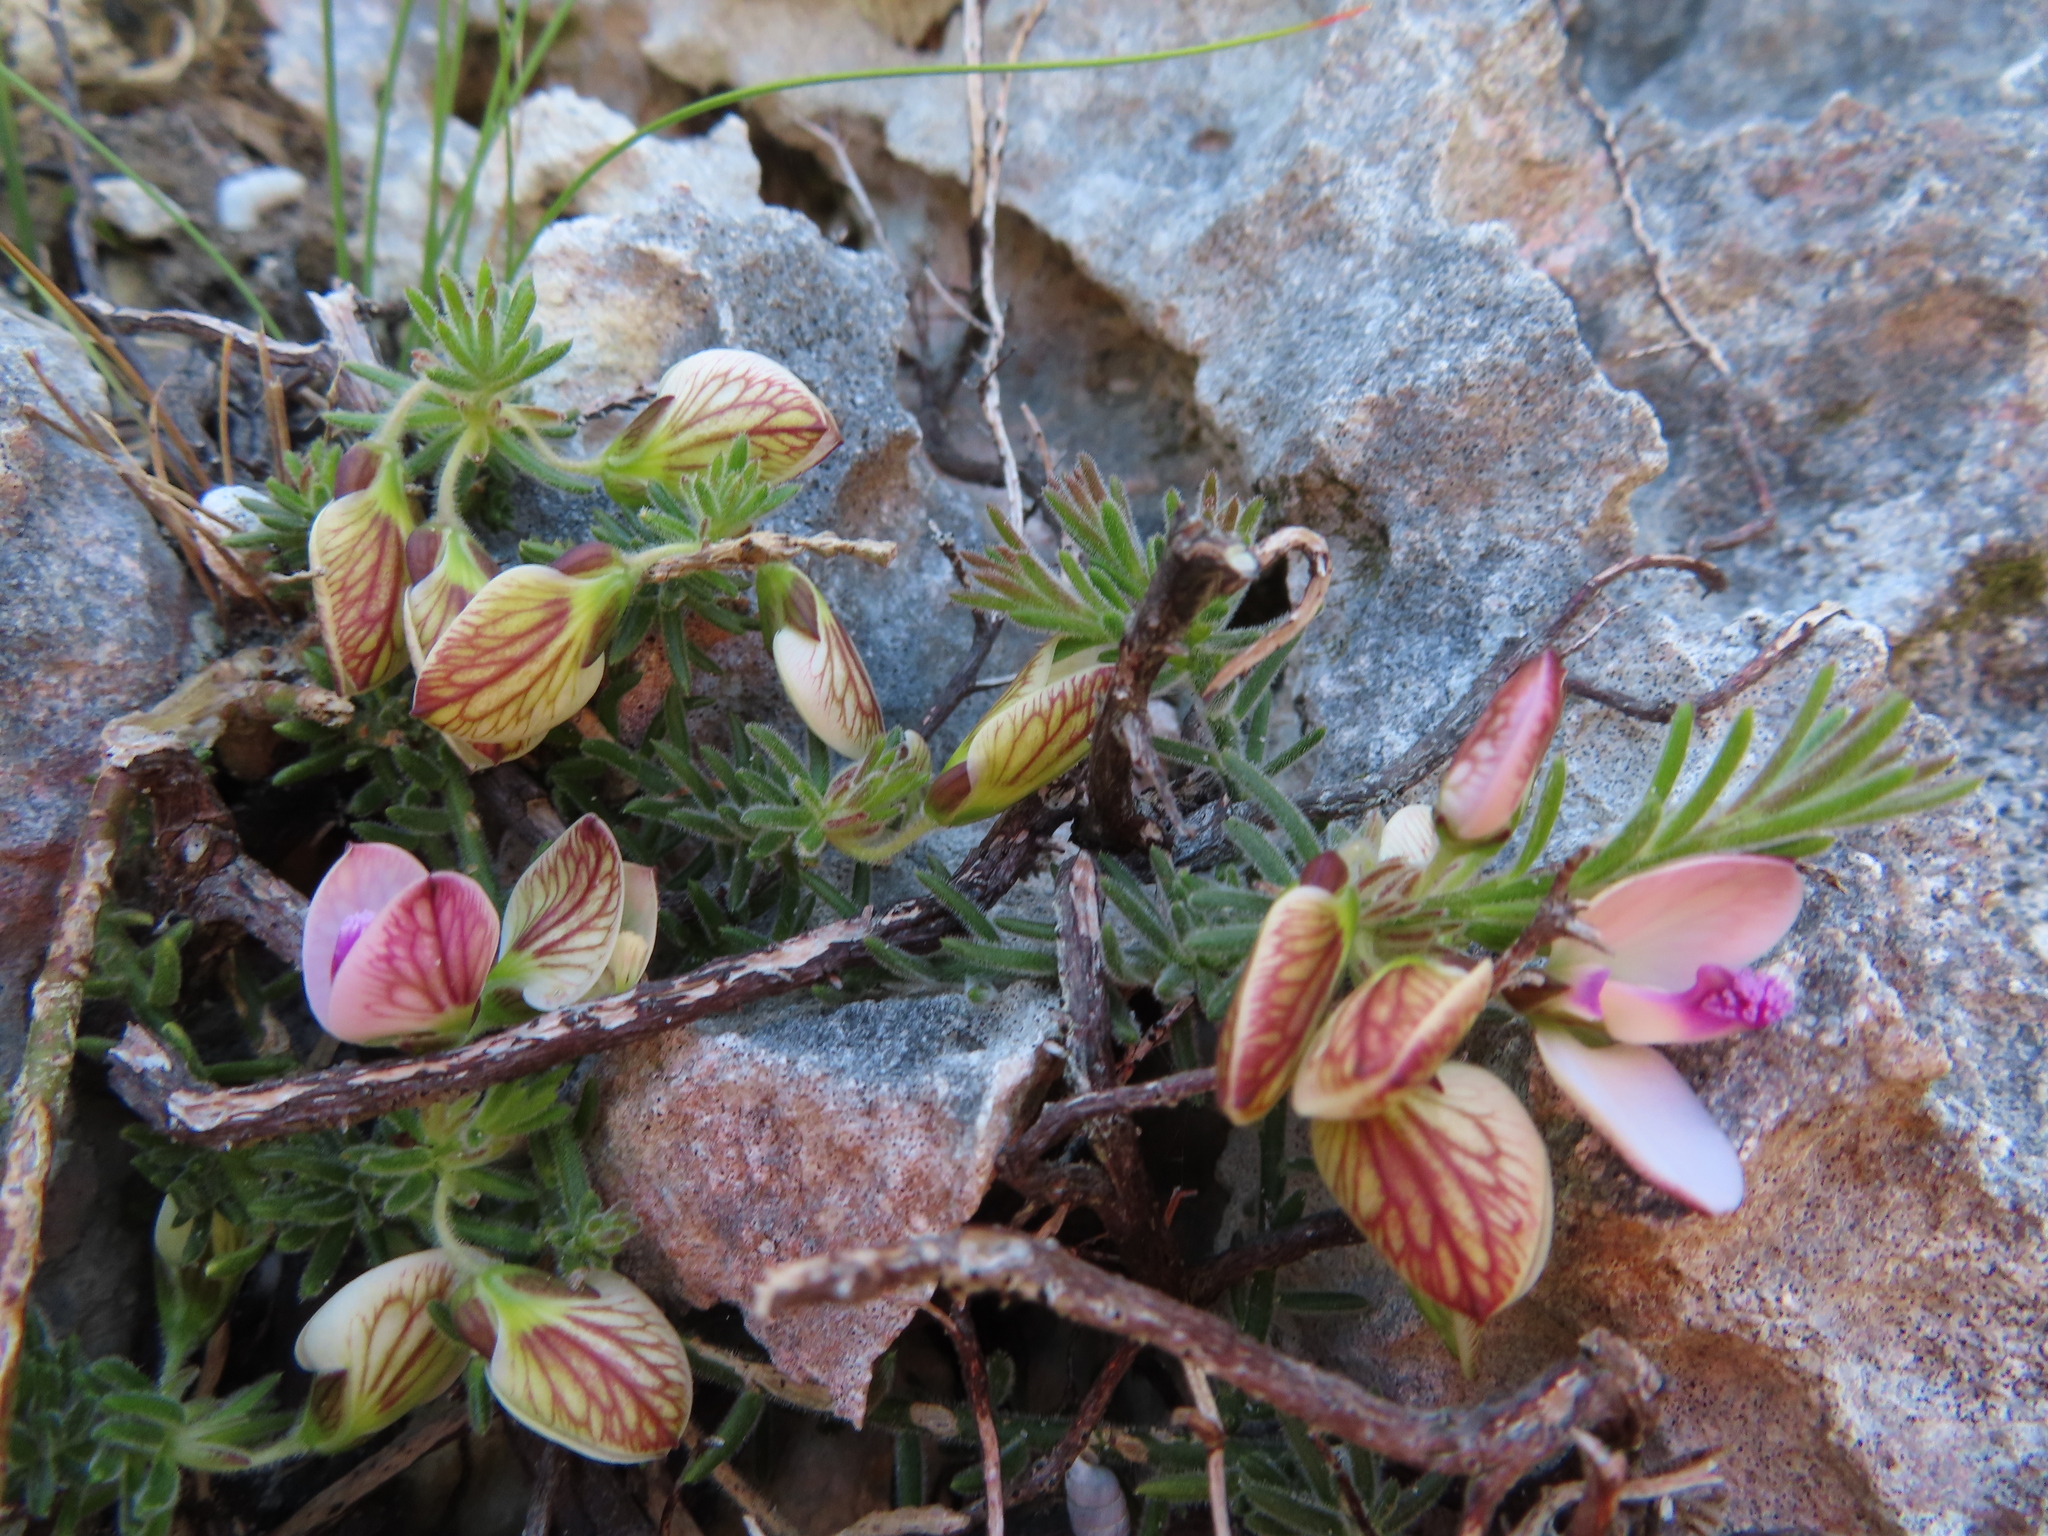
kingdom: Plantae
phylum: Tracheophyta
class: Magnoliopsida
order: Fabales
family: Polygalaceae
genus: Polygala
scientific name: Polygala dasyphylla
